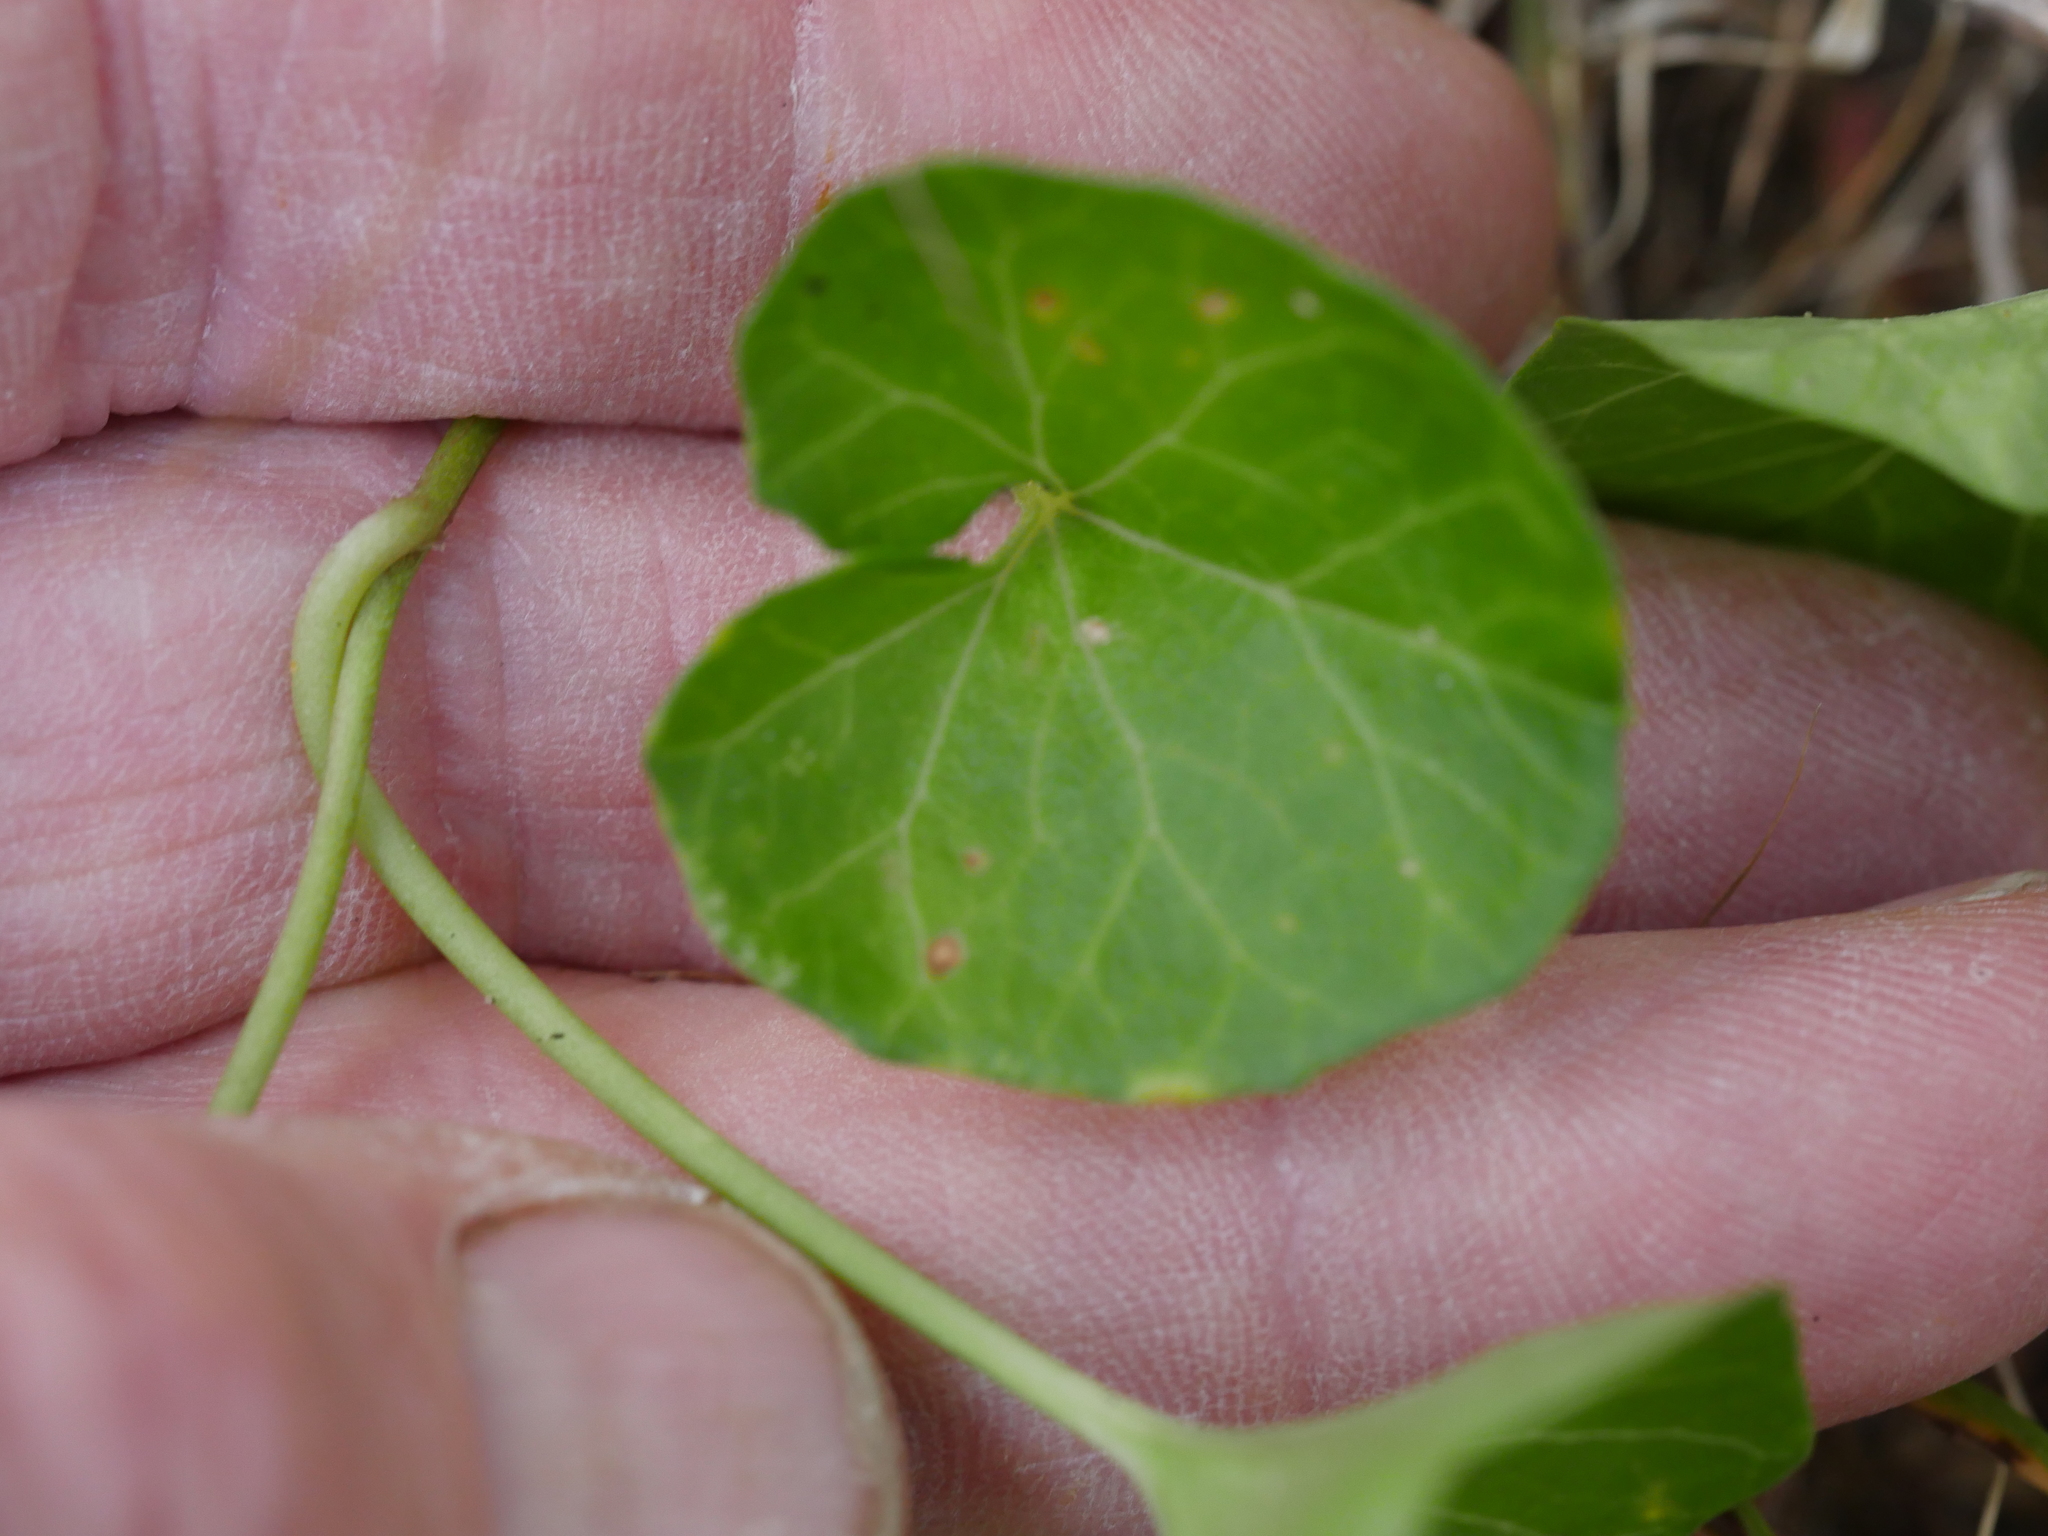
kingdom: Plantae
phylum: Tracheophyta
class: Magnoliopsida
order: Solanales
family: Convolvulaceae
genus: Calystegia
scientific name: Calystegia soldanella
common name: Sea bindweed
